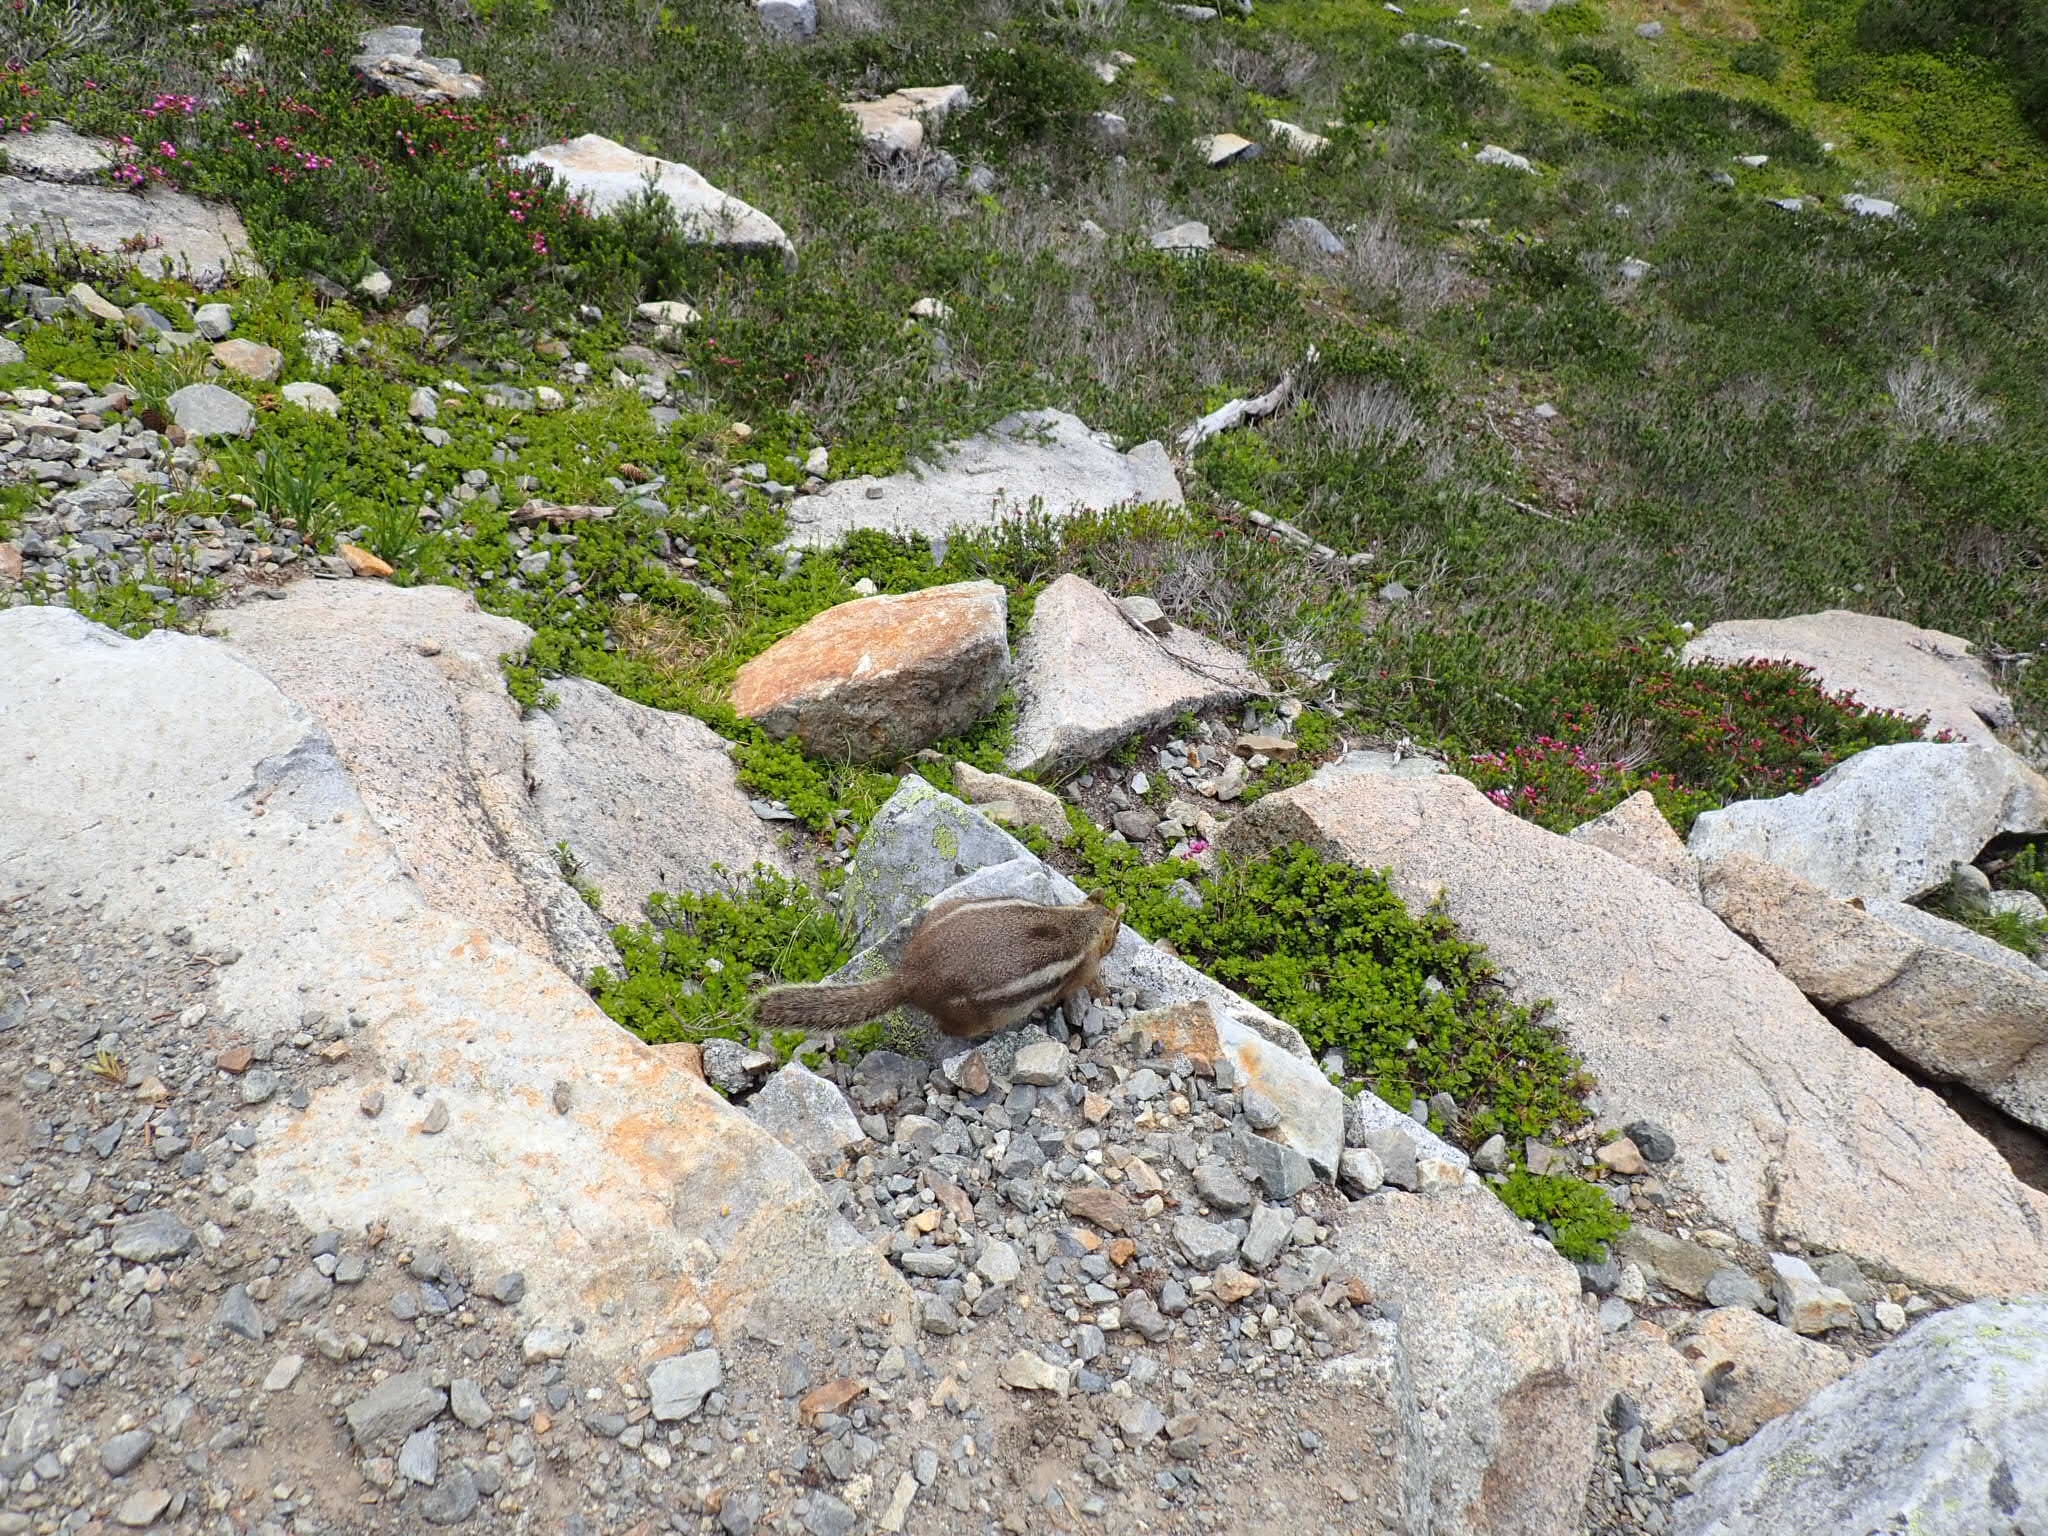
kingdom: Animalia
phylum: Chordata
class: Mammalia
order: Rodentia
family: Sciuridae
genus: Callospermophilus
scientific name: Callospermophilus saturatus
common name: Cascade golden-mantled ground squirrel
